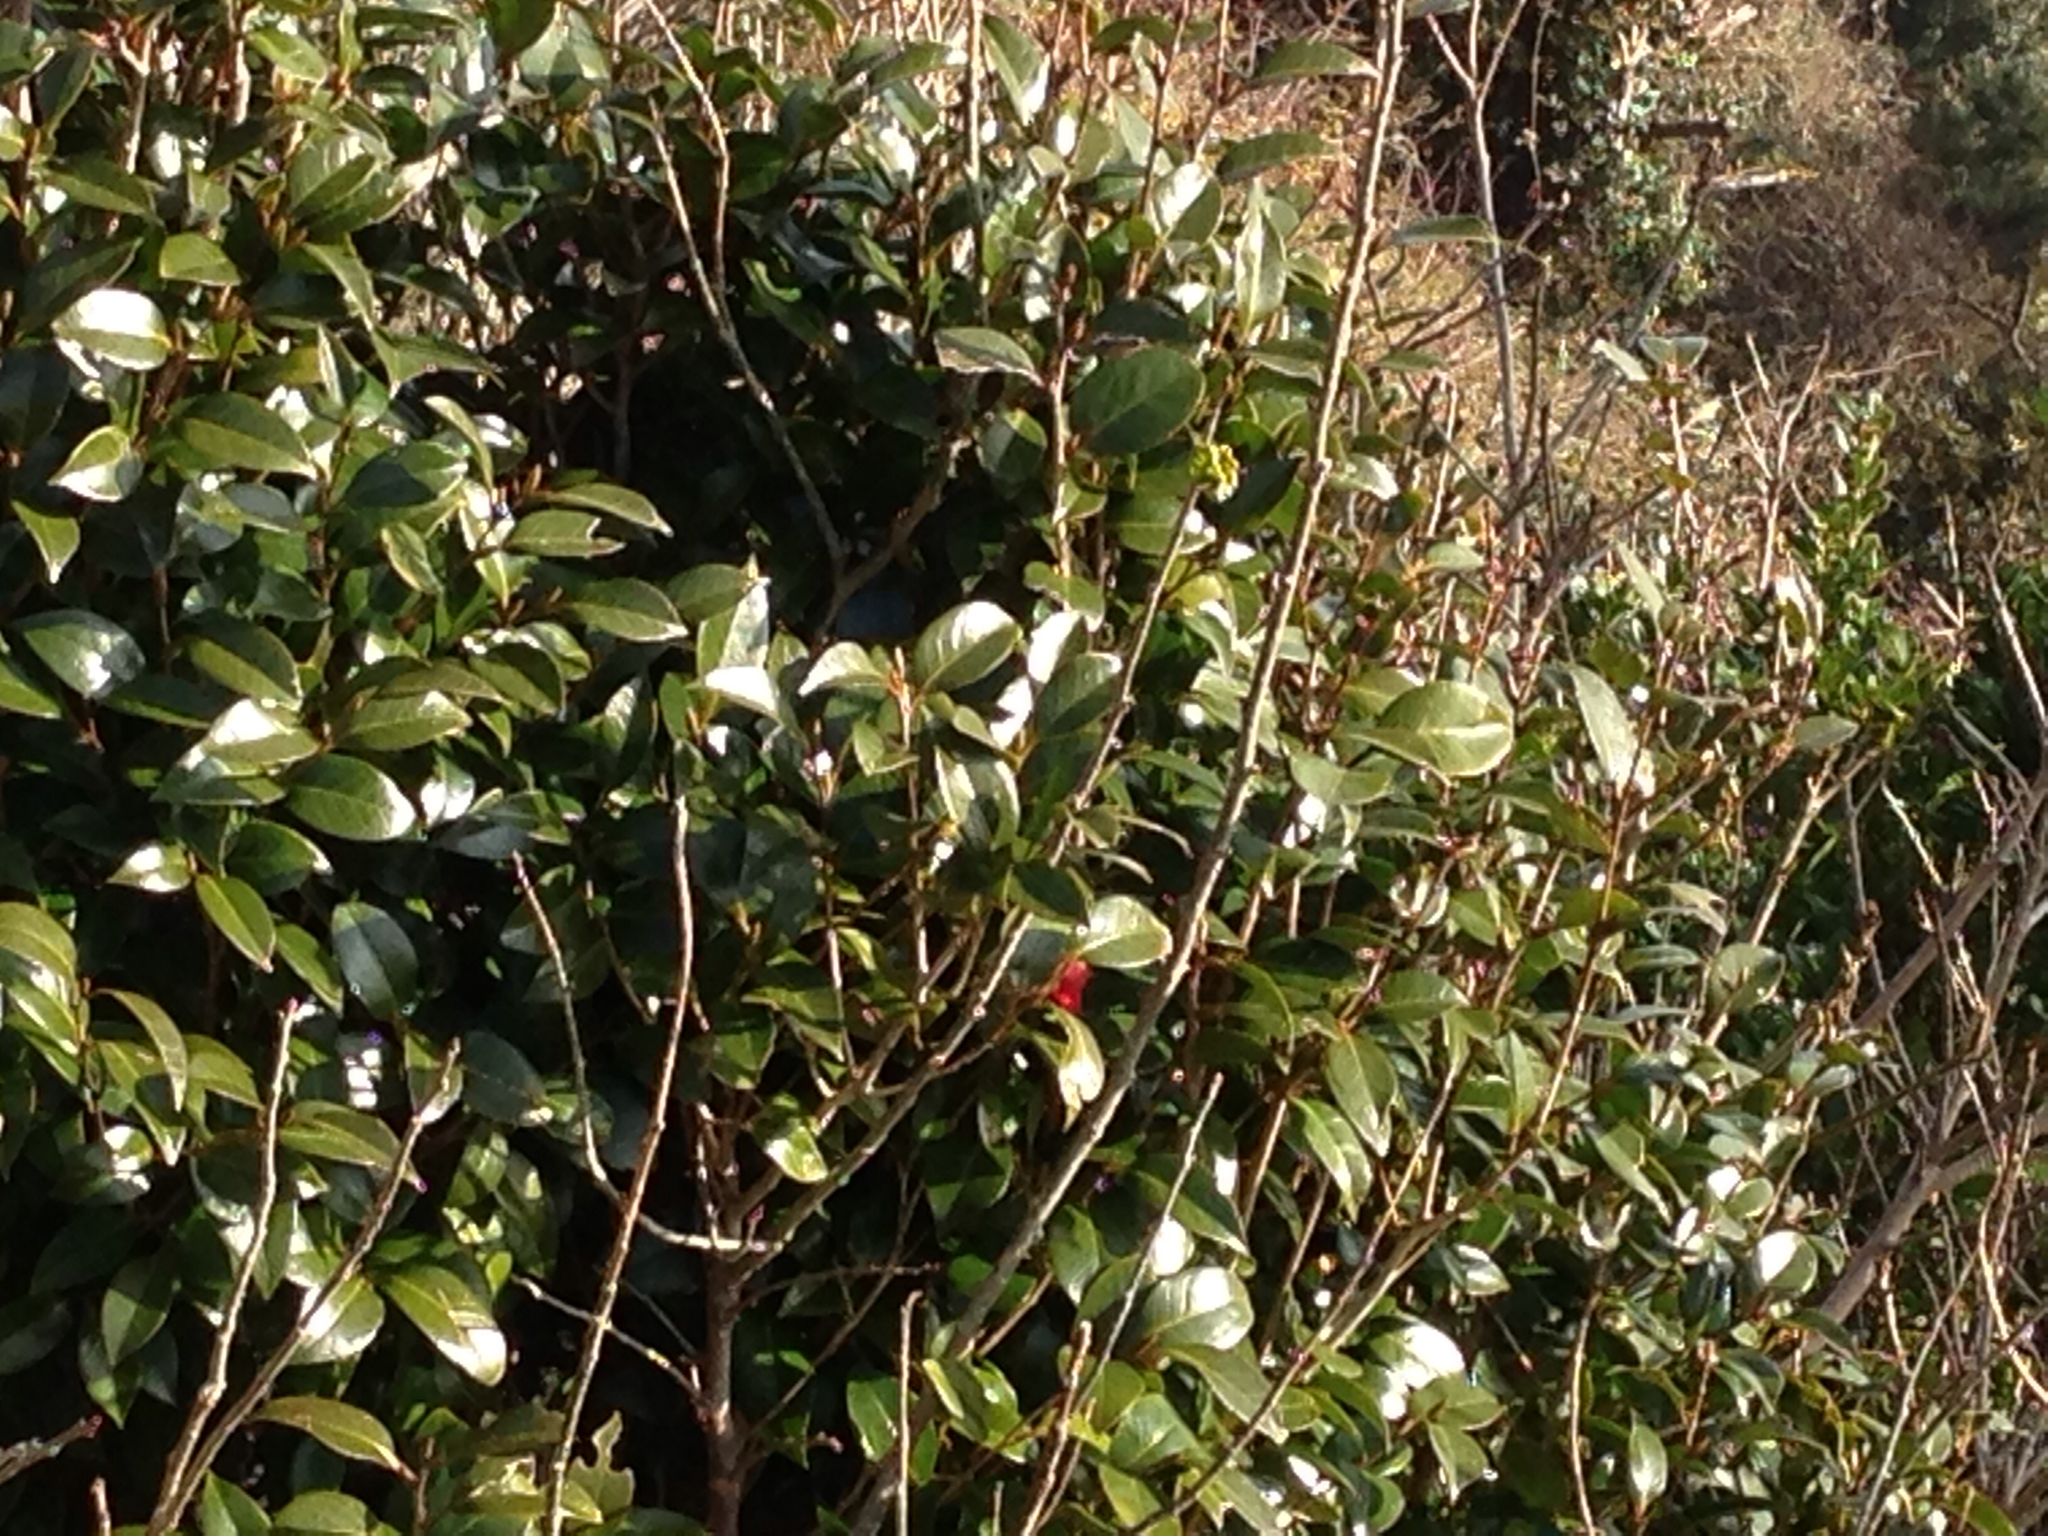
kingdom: Plantae
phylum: Tracheophyta
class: Magnoliopsida
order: Ericales
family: Theaceae
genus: Camellia
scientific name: Camellia japonica
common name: Camellia
